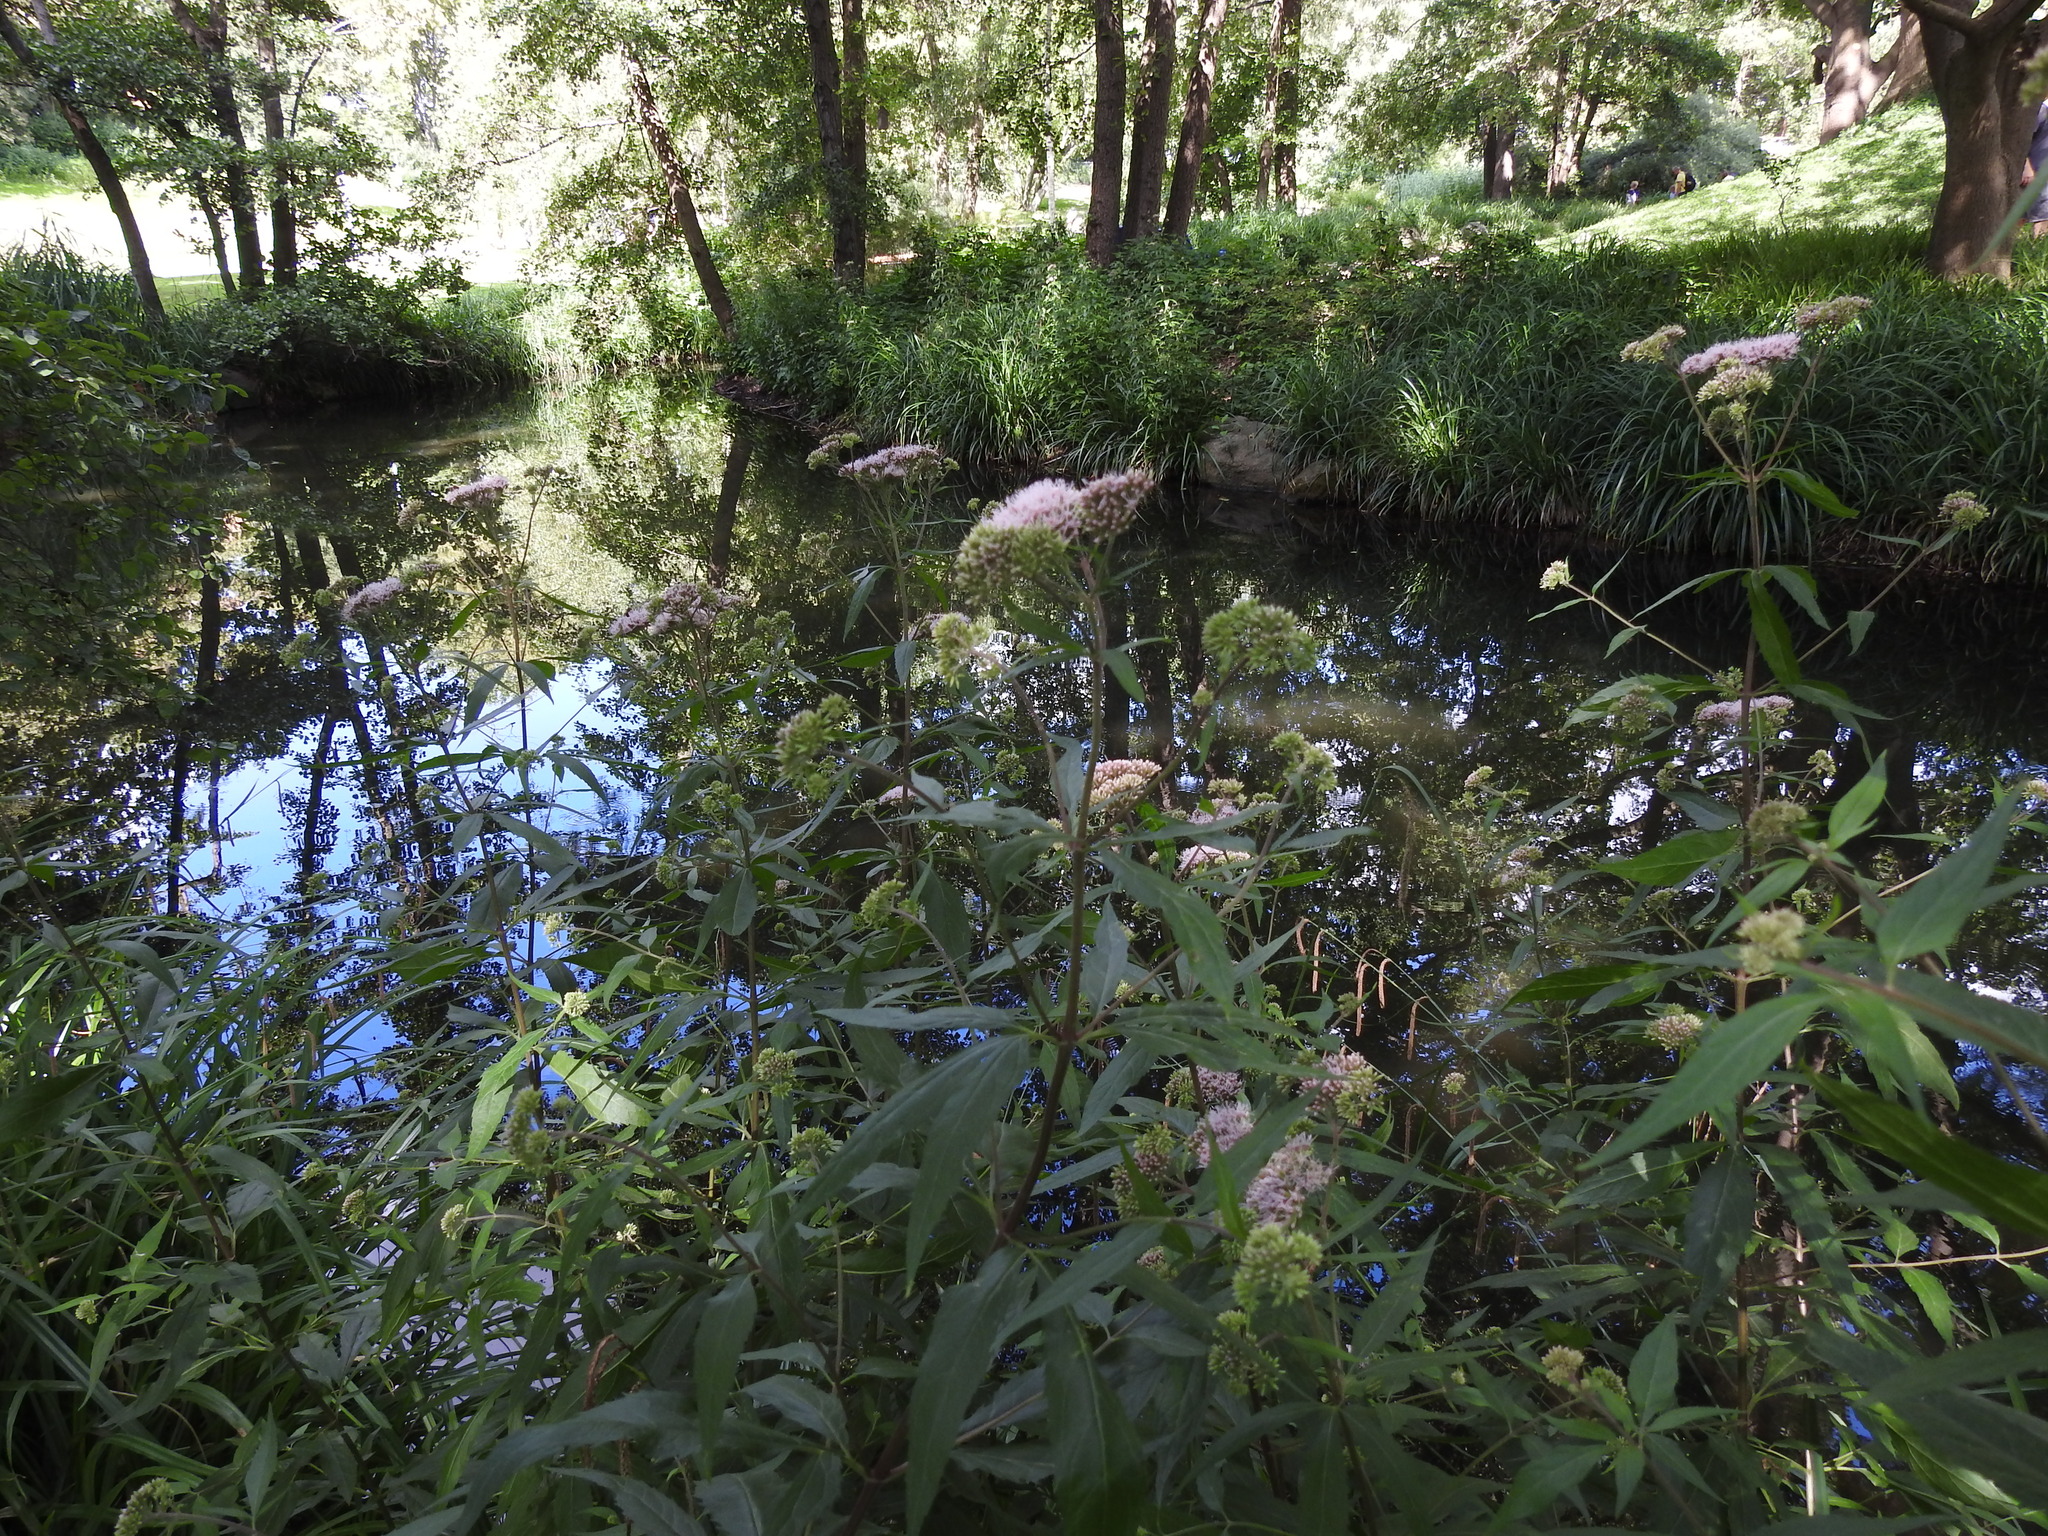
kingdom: Plantae
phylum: Tracheophyta
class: Magnoliopsida
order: Asterales
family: Asteraceae
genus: Eupatorium
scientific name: Eupatorium cannabinum
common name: Hemp-agrimony
